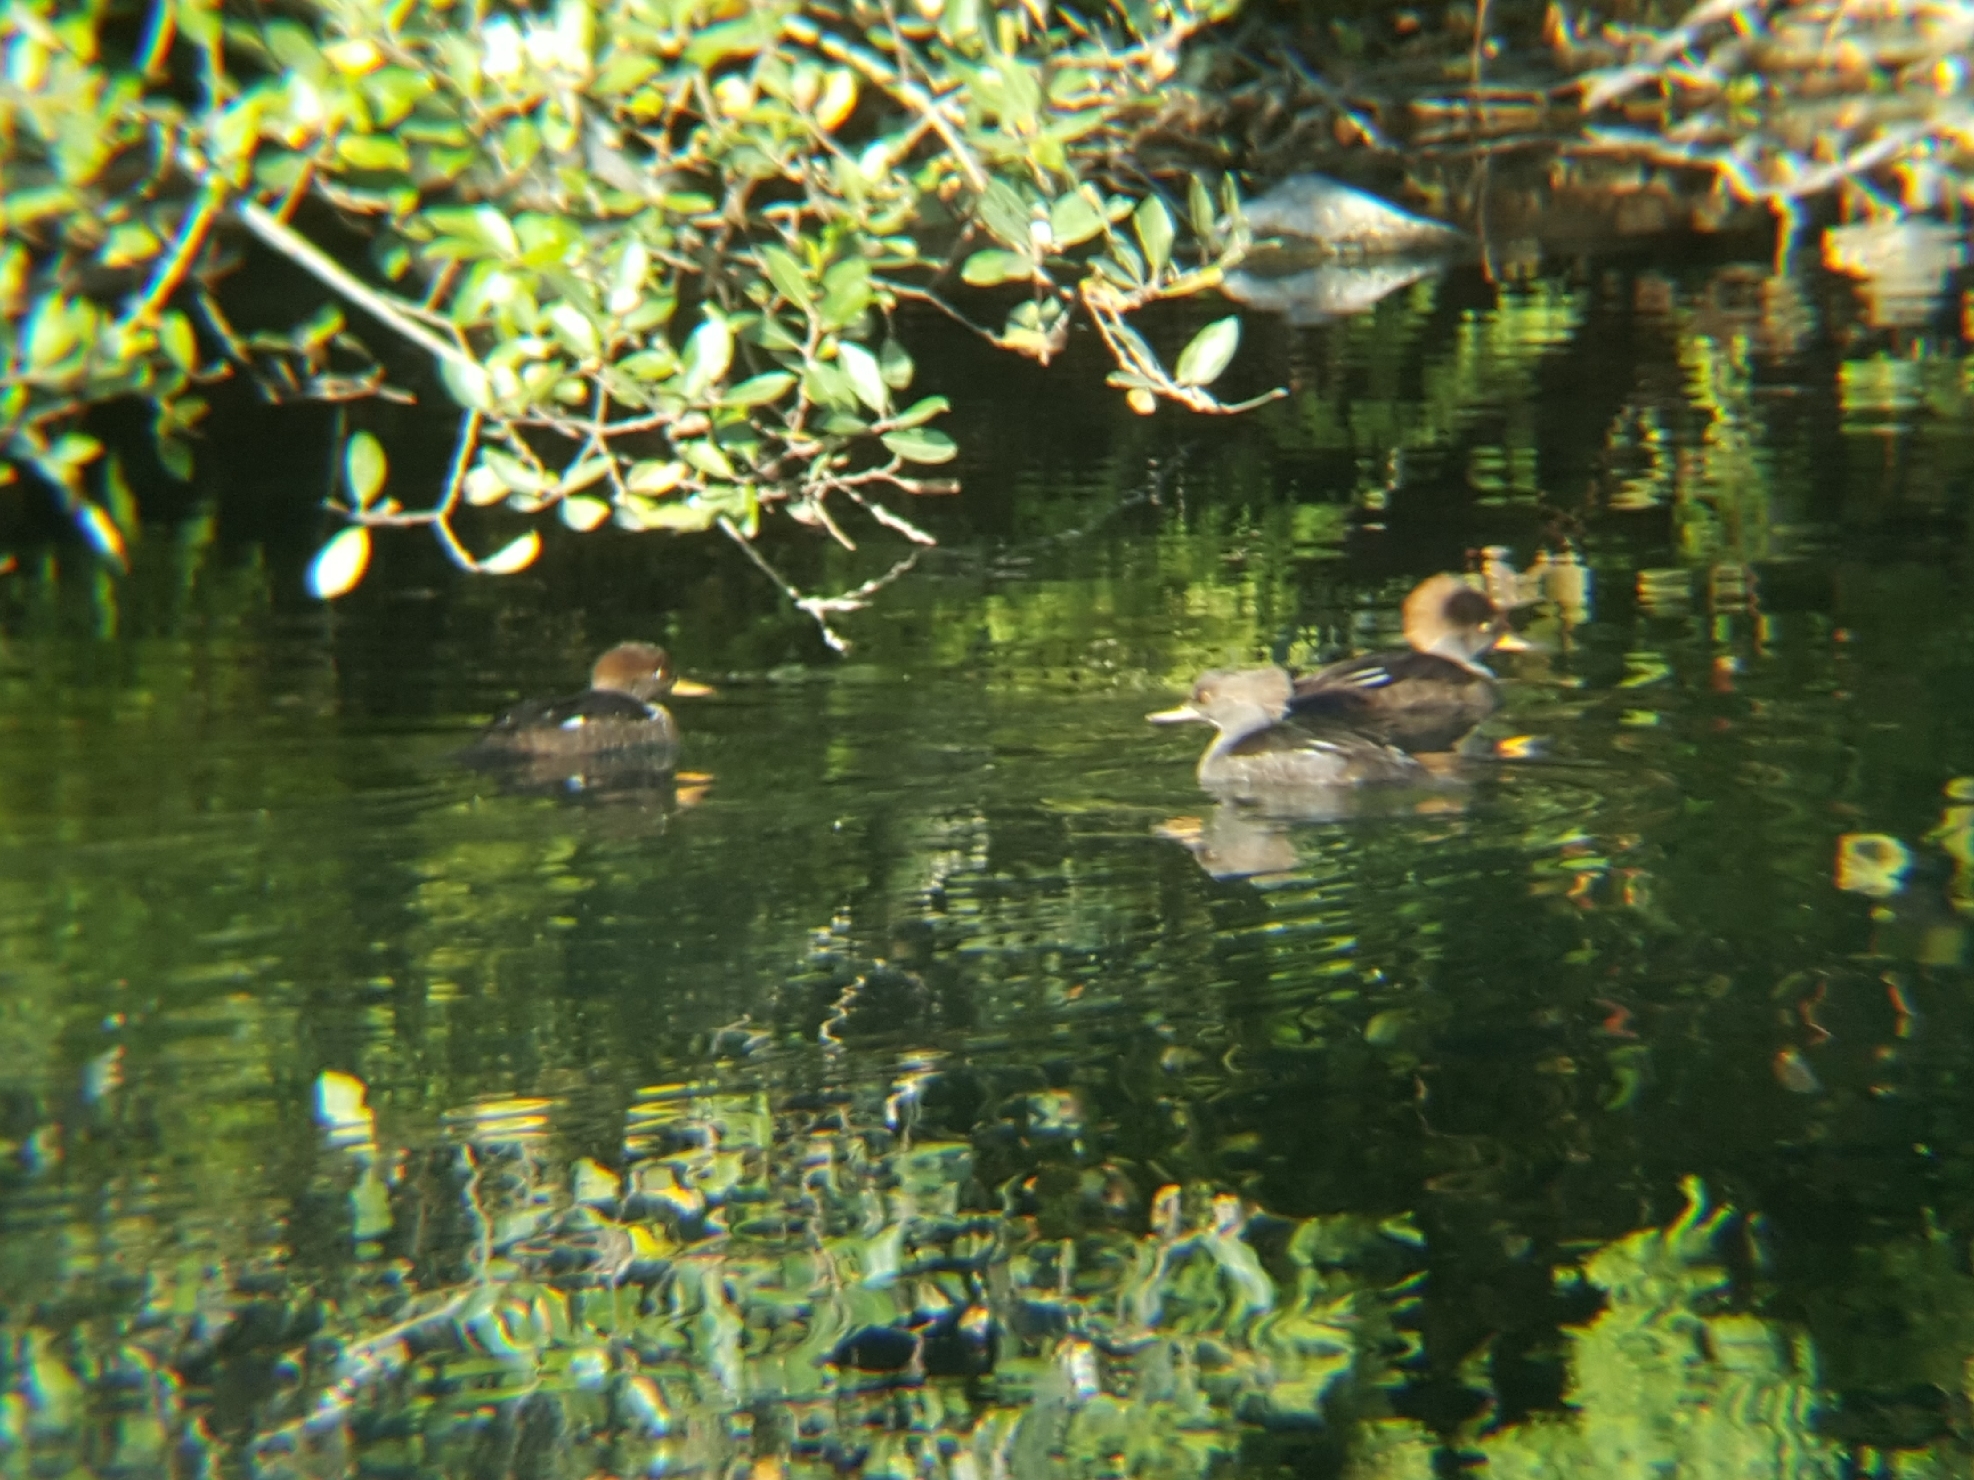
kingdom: Animalia
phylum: Chordata
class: Aves
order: Anseriformes
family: Anatidae
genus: Lophodytes
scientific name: Lophodytes cucullatus
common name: Hooded merganser
